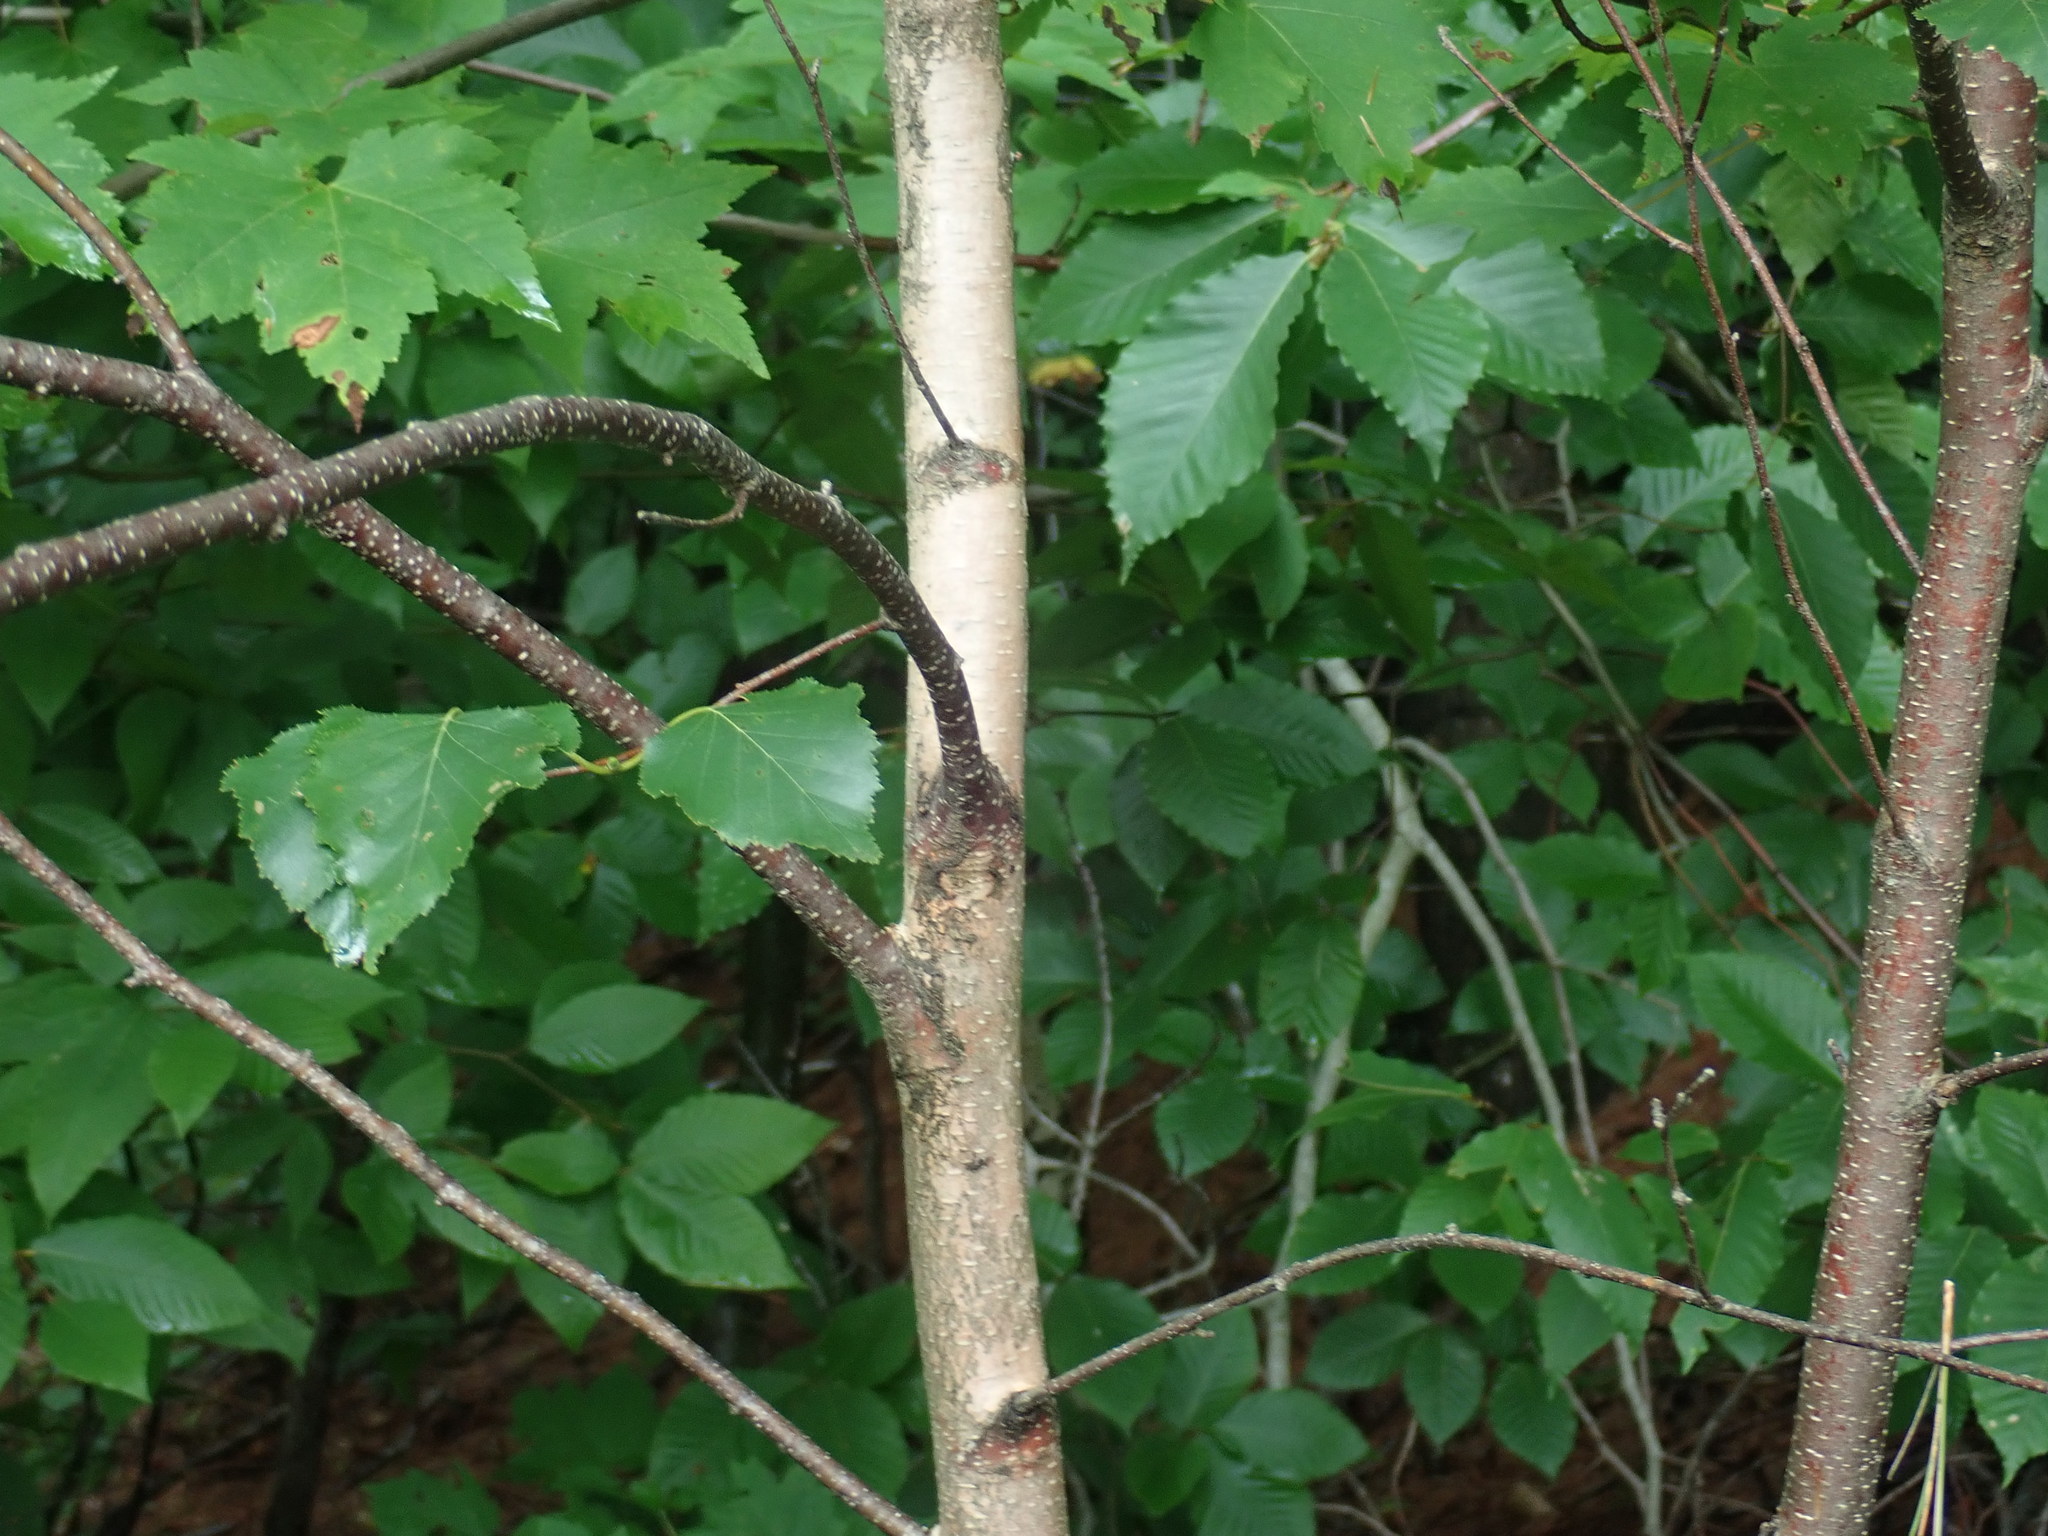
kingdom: Plantae
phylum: Tracheophyta
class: Magnoliopsida
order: Fagales
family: Betulaceae
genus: Betula
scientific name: Betula populifolia
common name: Fire birch
